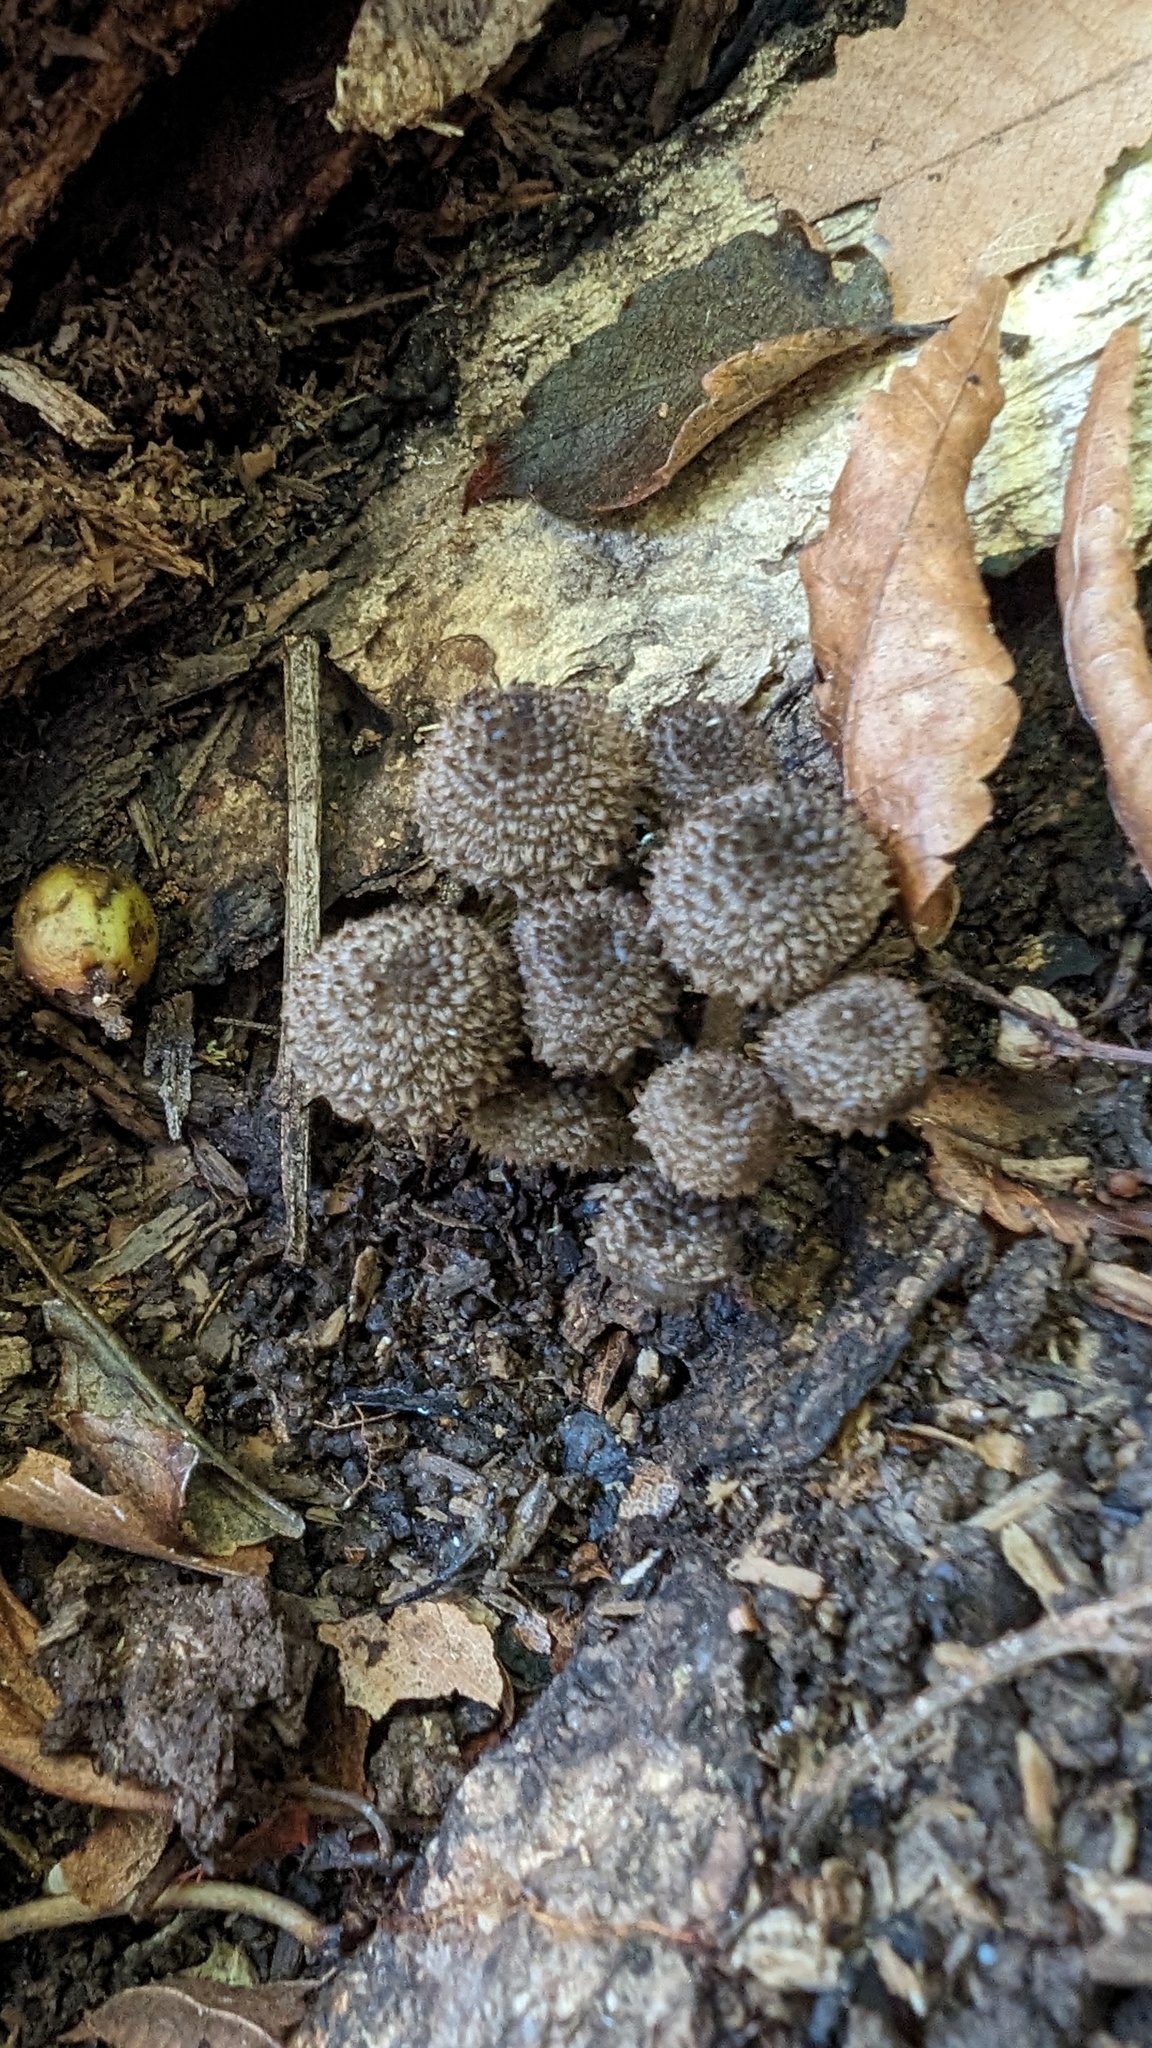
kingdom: Fungi
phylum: Basidiomycota
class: Agaricomycetes
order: Agaricales
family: Psathyrellaceae
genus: Cystoagaricus
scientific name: Cystoagaricus strobilomyces
